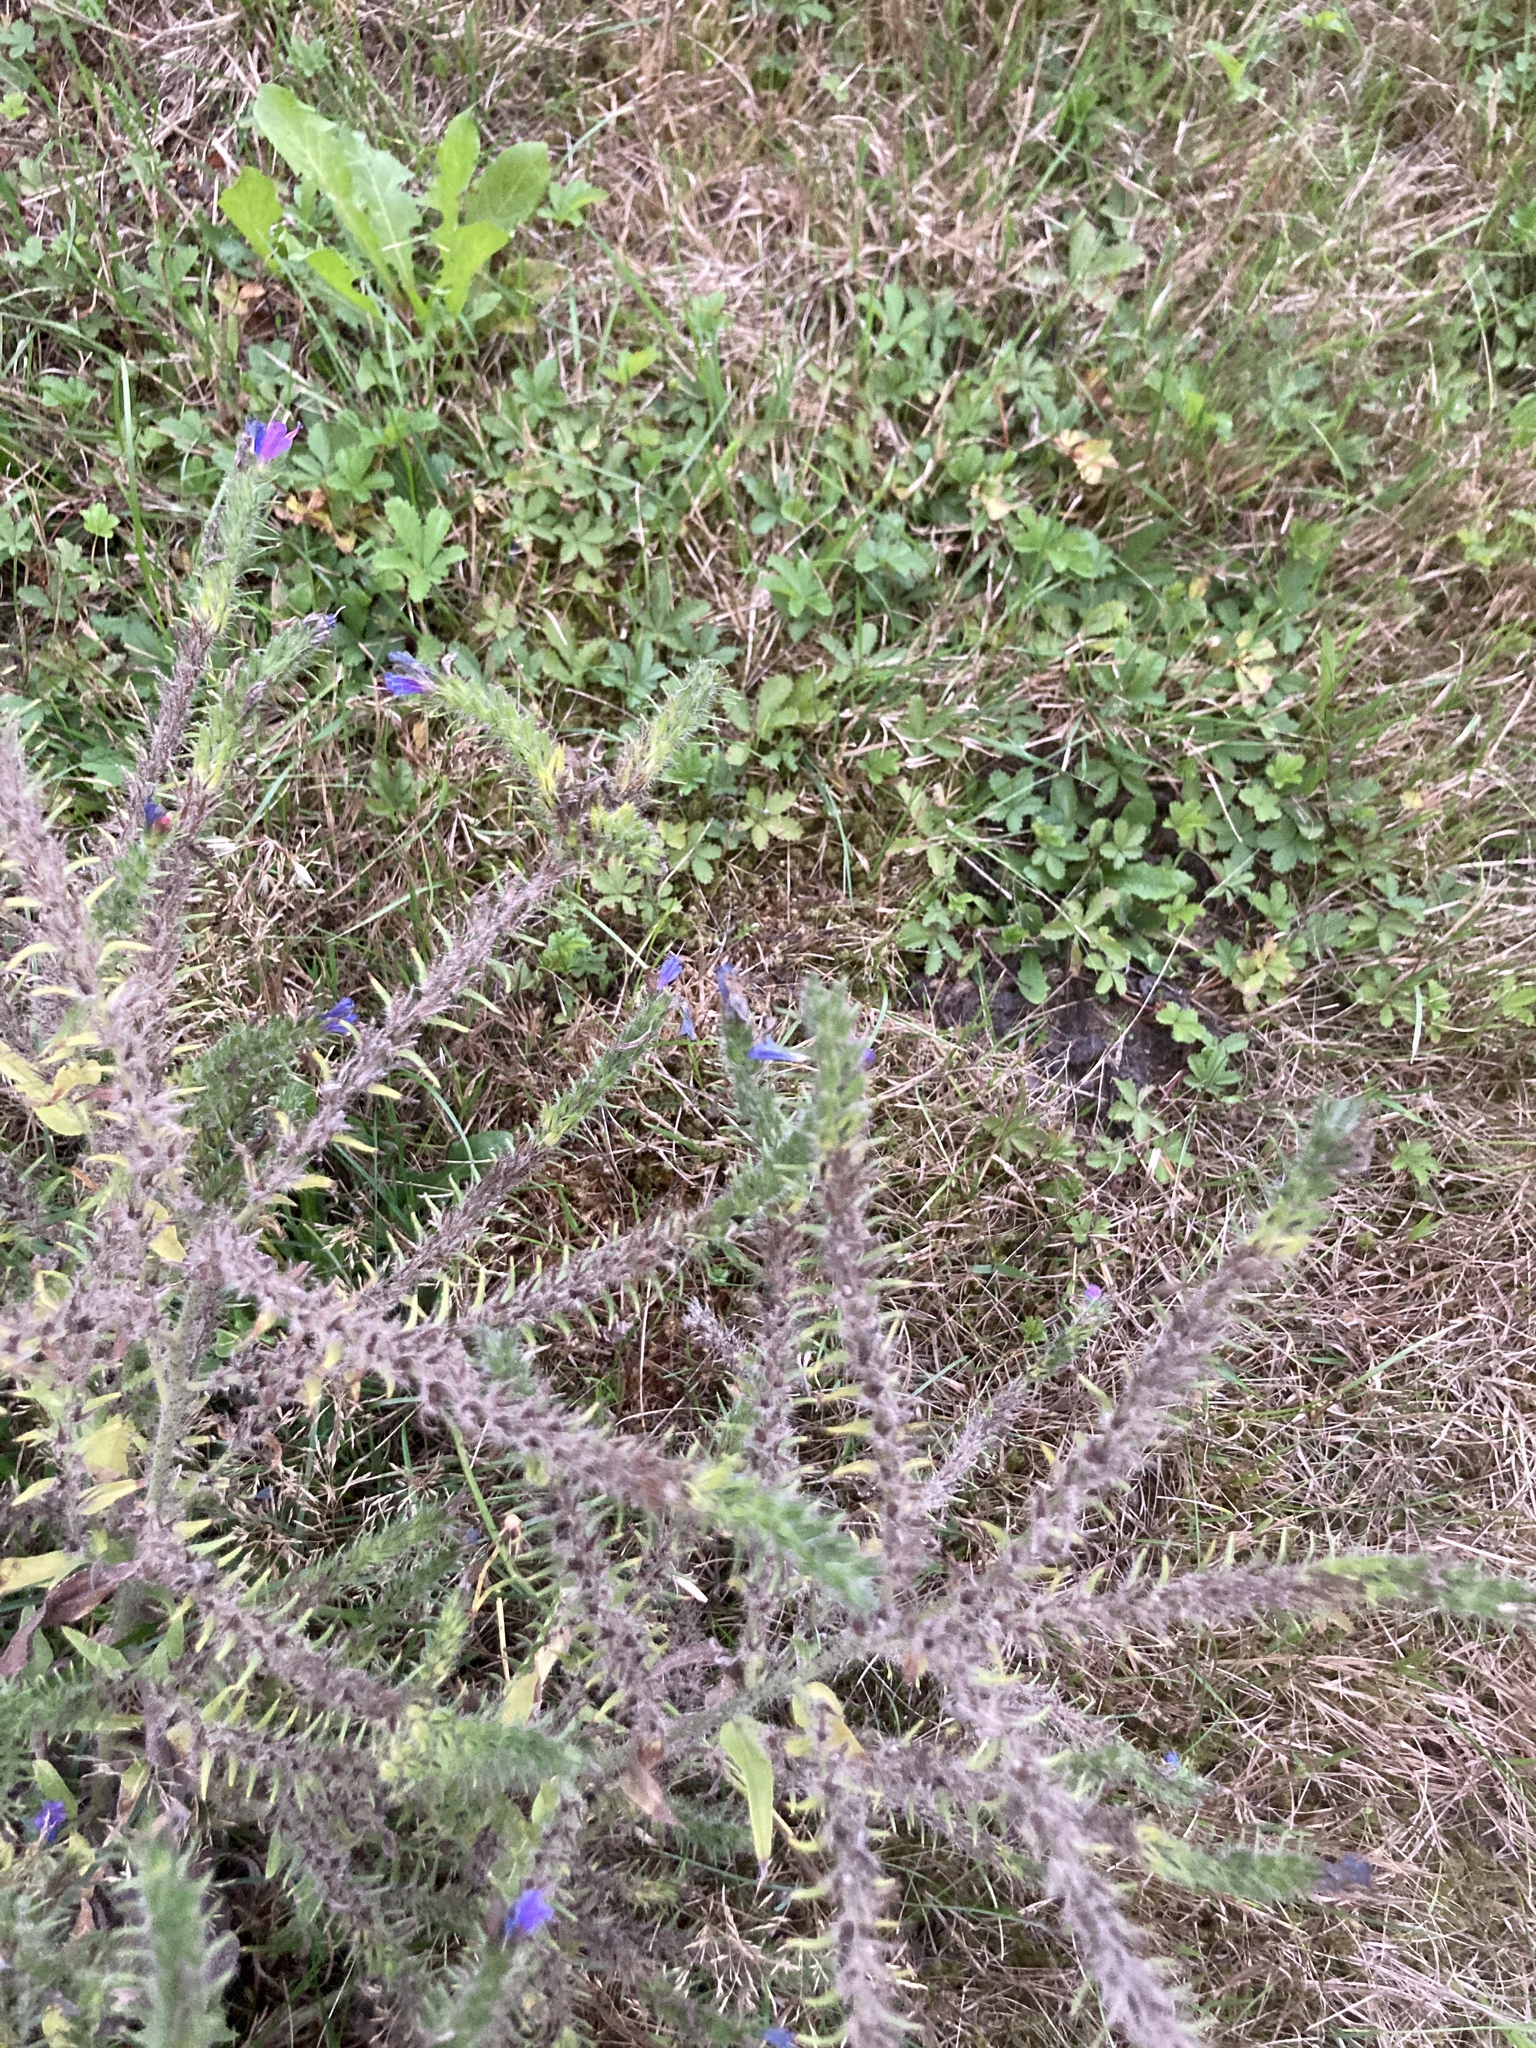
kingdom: Plantae
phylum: Tracheophyta
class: Magnoliopsida
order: Rosales
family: Rosaceae
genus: Potentilla
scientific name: Potentilla reptans
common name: Creeping cinquefoil
